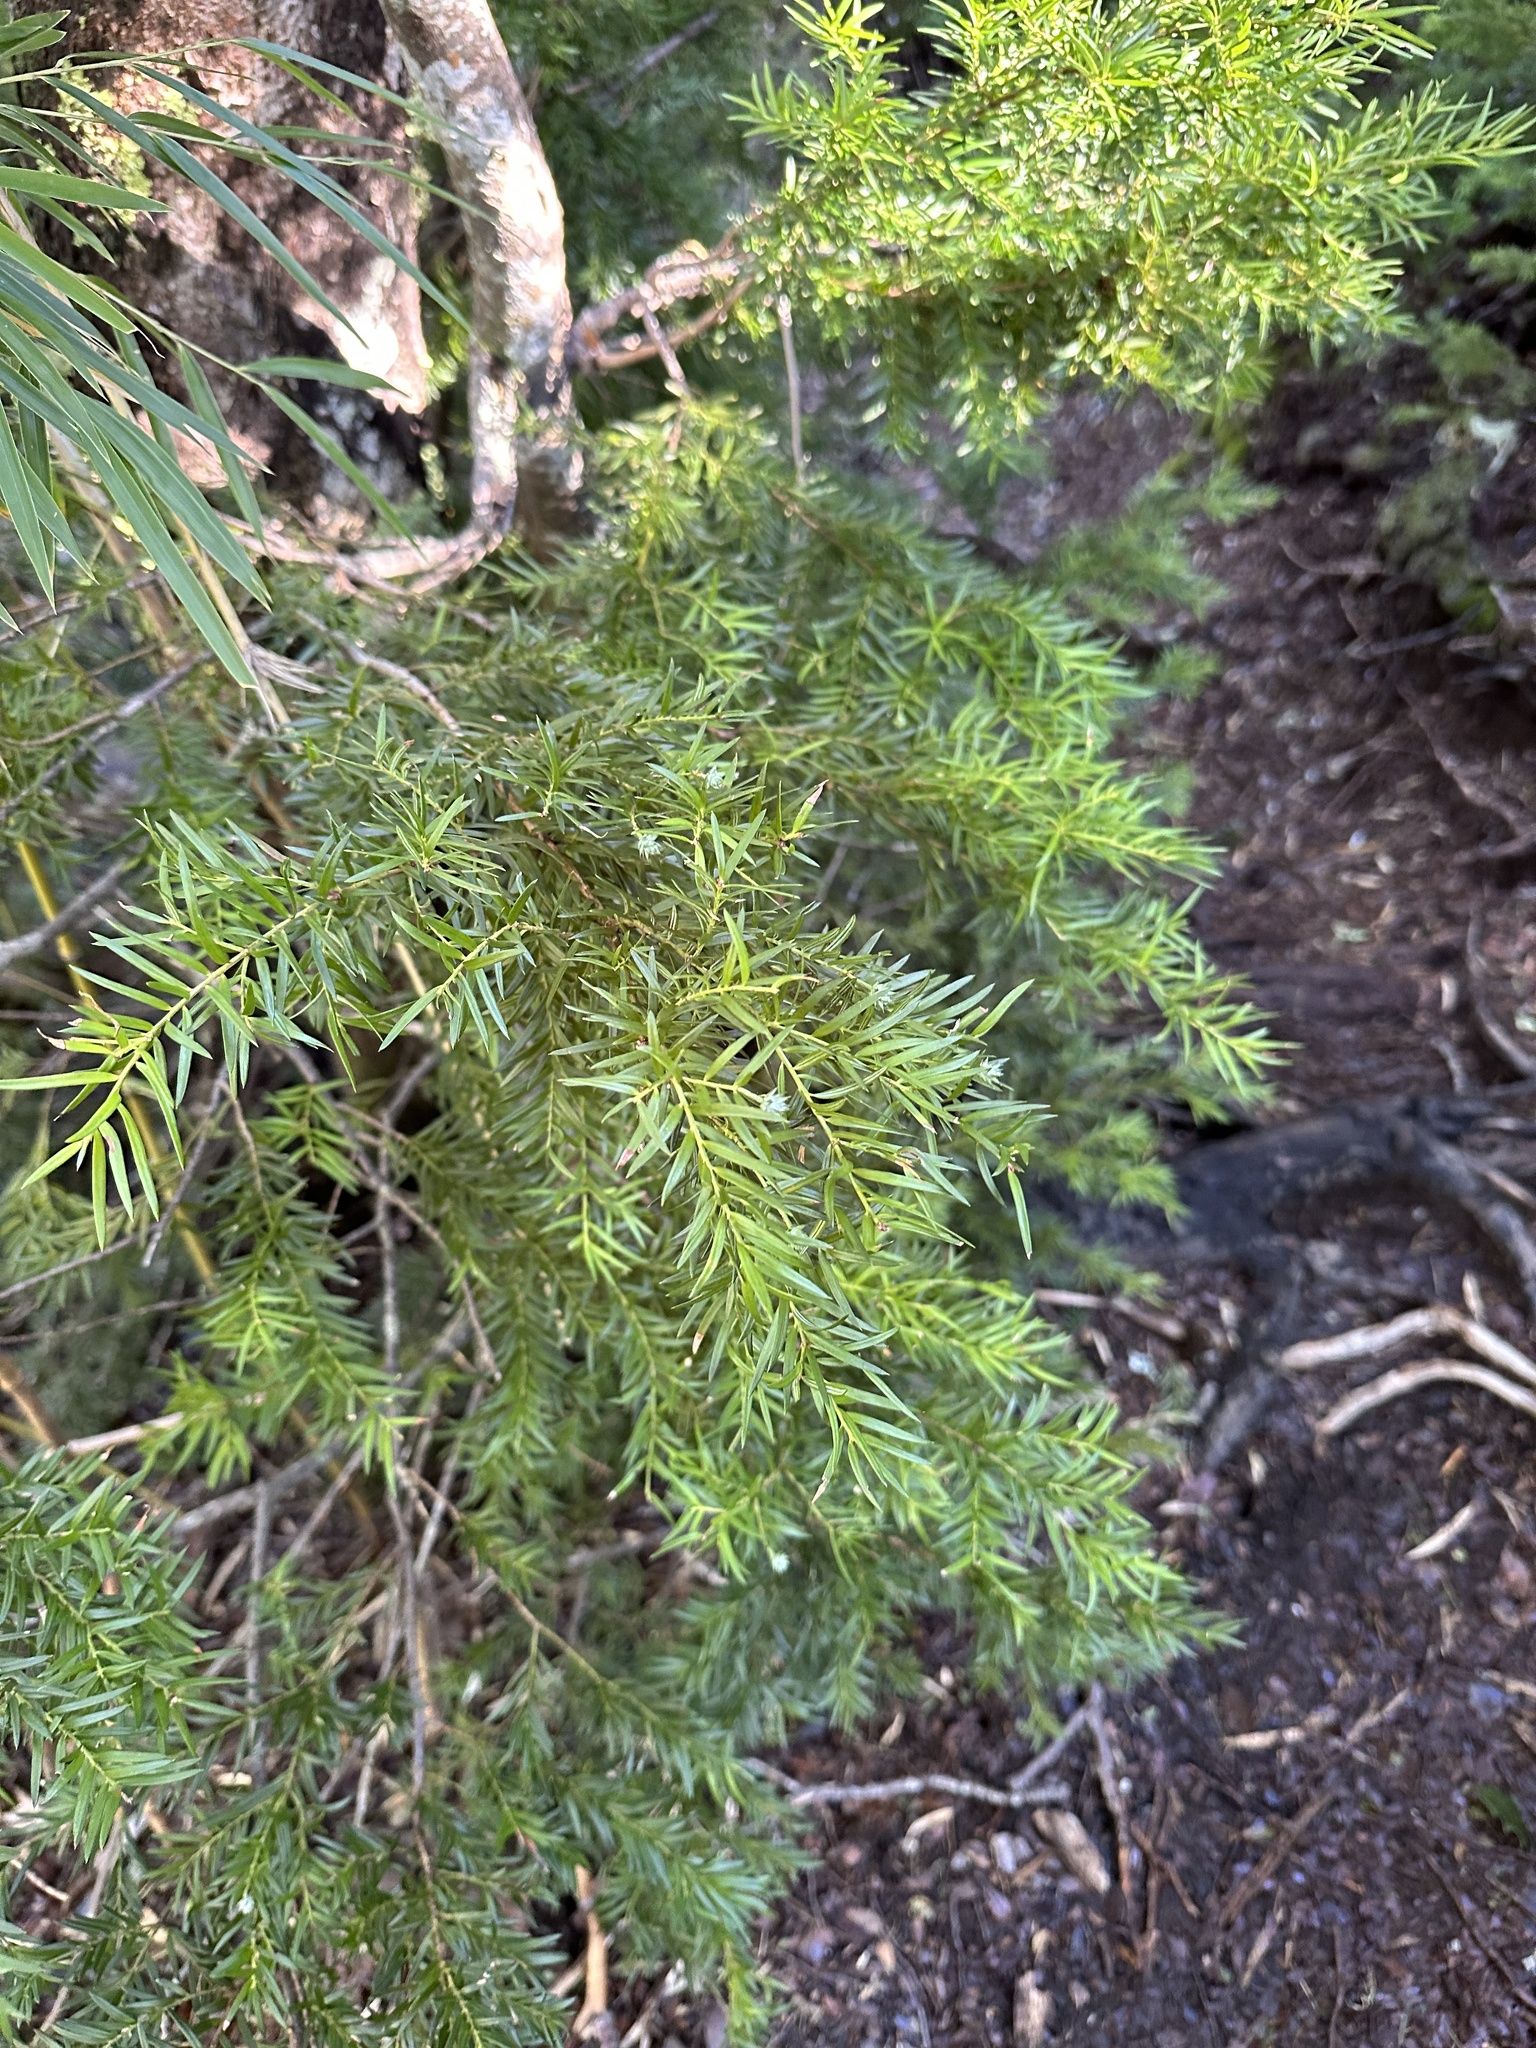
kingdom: Plantae
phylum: Tracheophyta
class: Pinopsida
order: Pinales
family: Podocarpaceae
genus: Saxegothaea
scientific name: Saxegothaea conspicua
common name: Prince albert's yew
